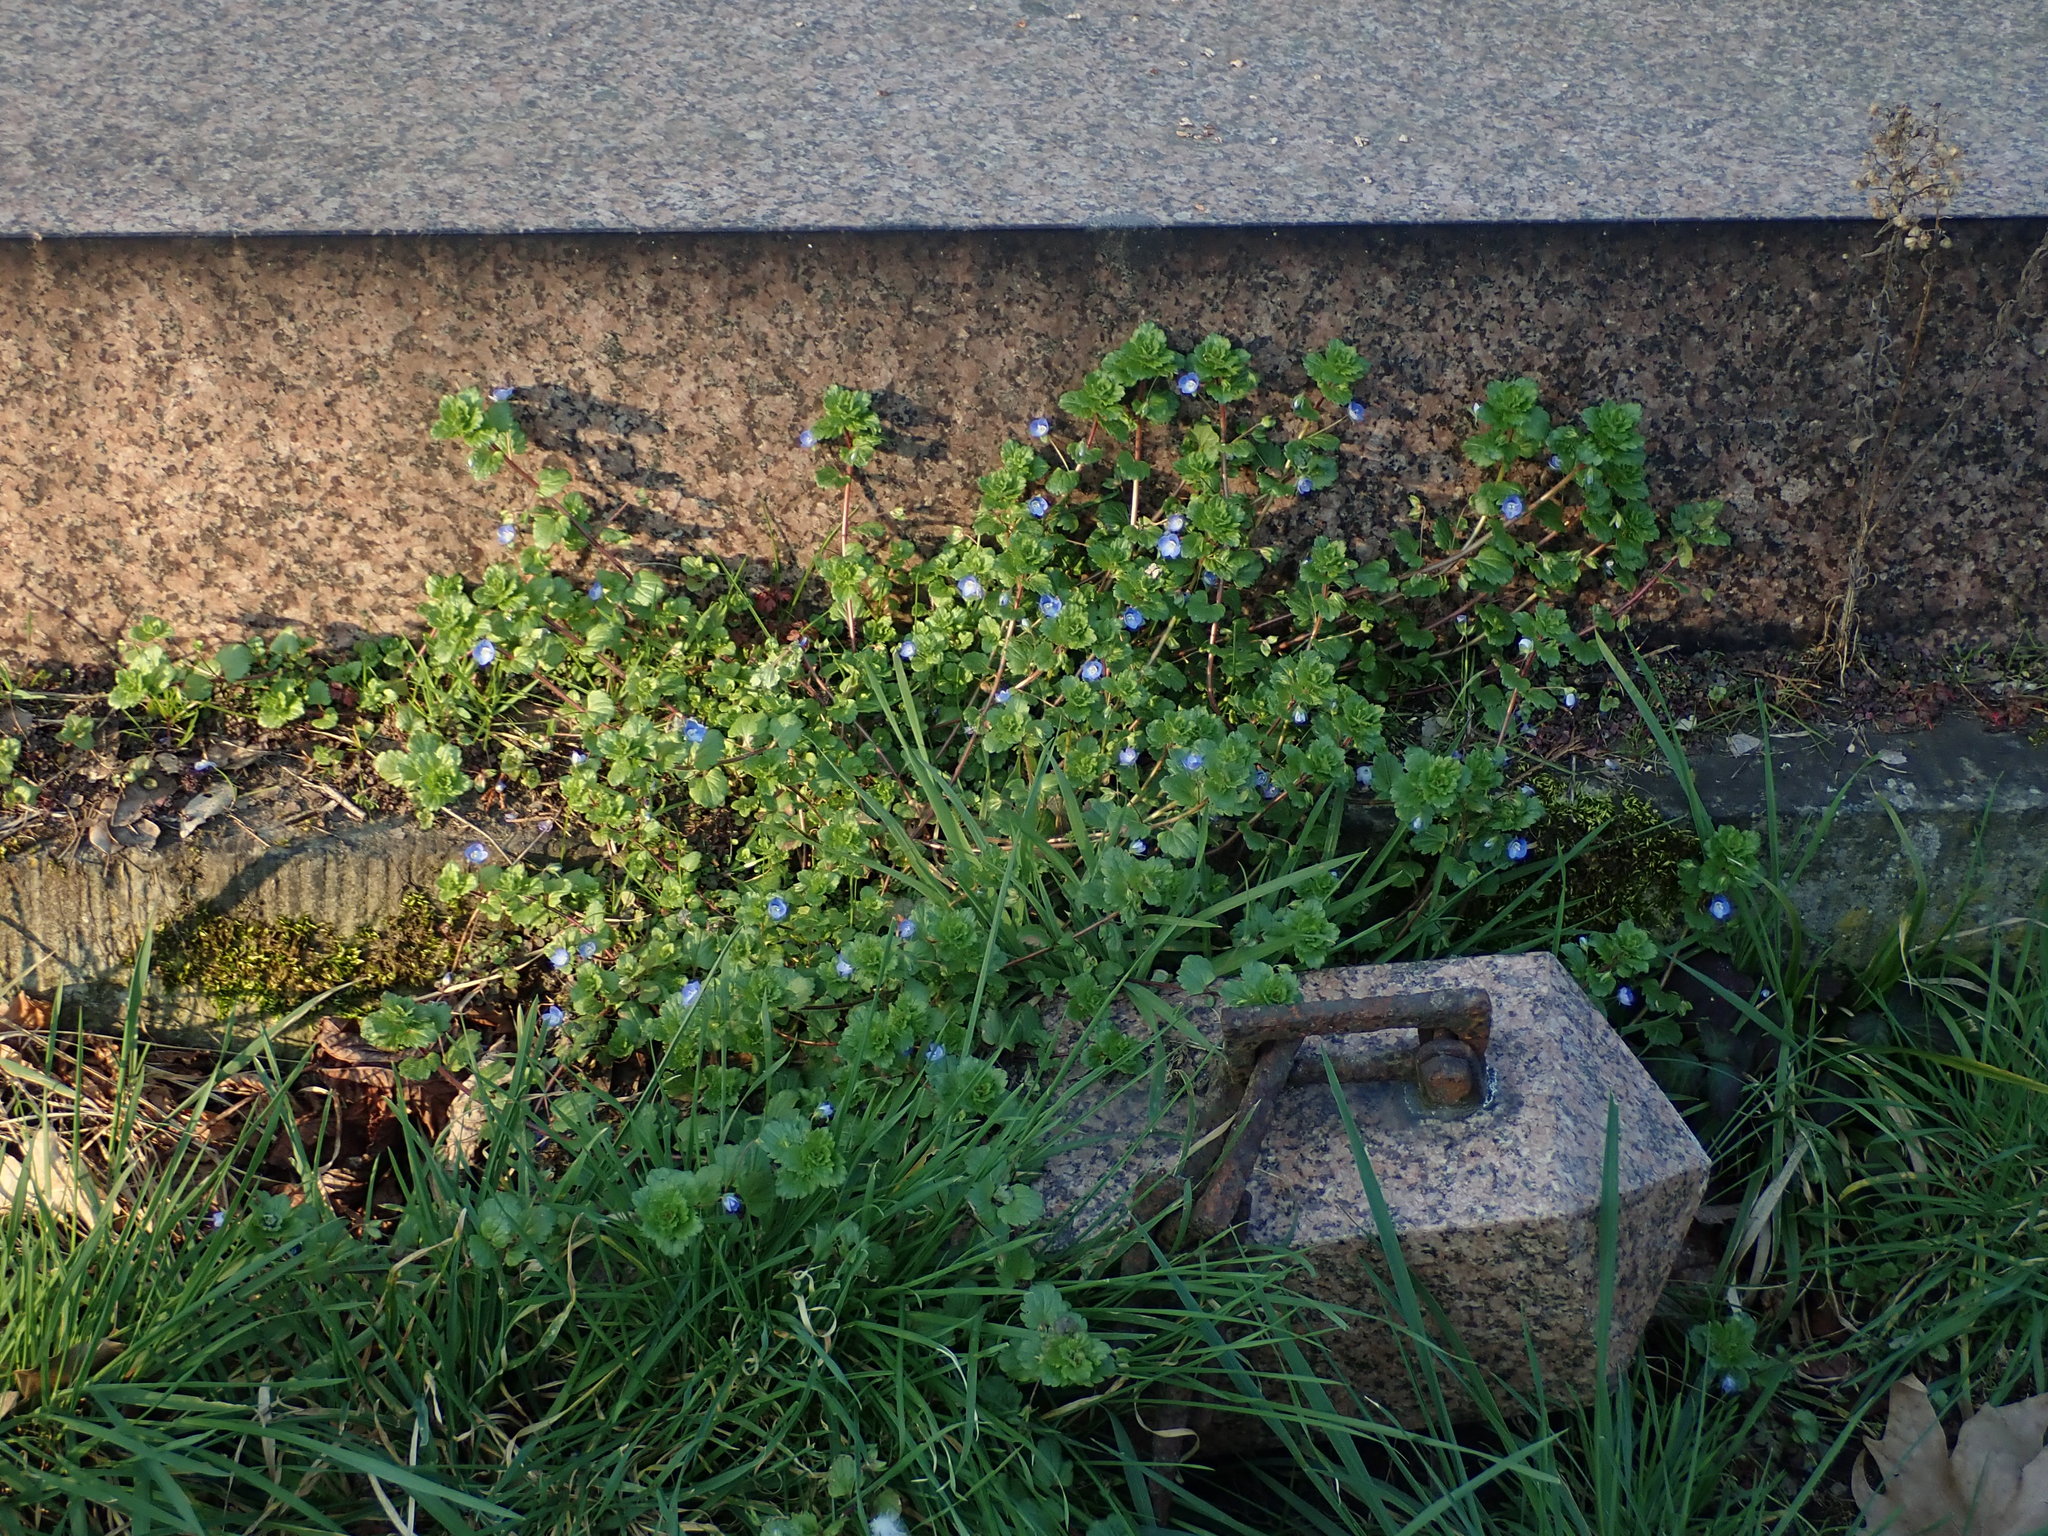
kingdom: Plantae
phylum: Tracheophyta
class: Magnoliopsida
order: Lamiales
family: Plantaginaceae
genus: Veronica
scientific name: Veronica persica
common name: Common field-speedwell
